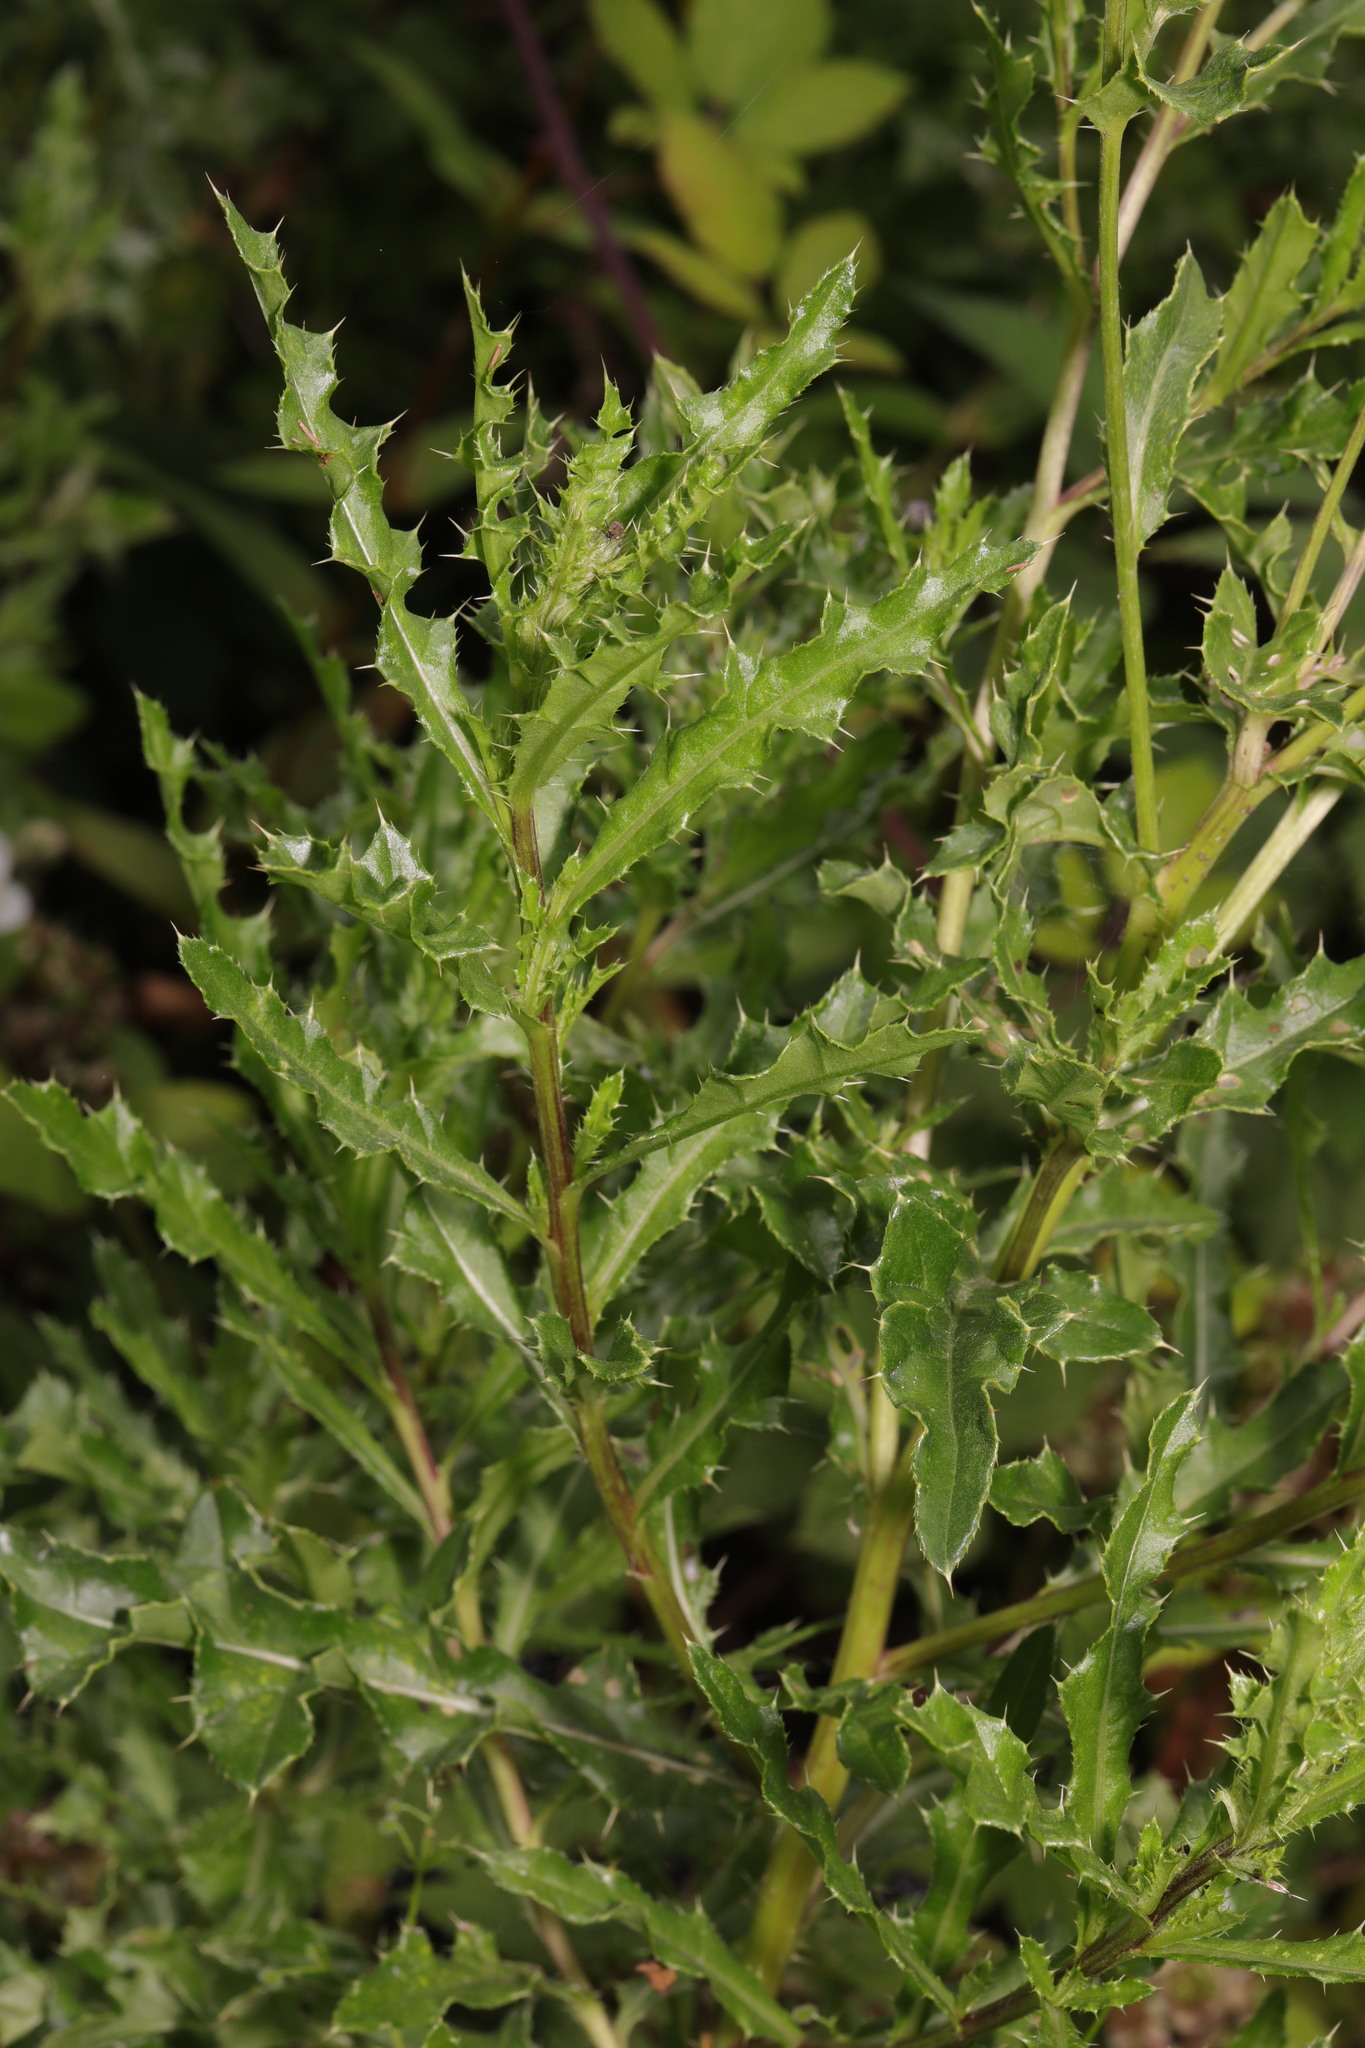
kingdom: Plantae
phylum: Tracheophyta
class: Magnoliopsida
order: Asterales
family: Asteraceae
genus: Cirsium
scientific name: Cirsium arvense
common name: Creeping thistle
